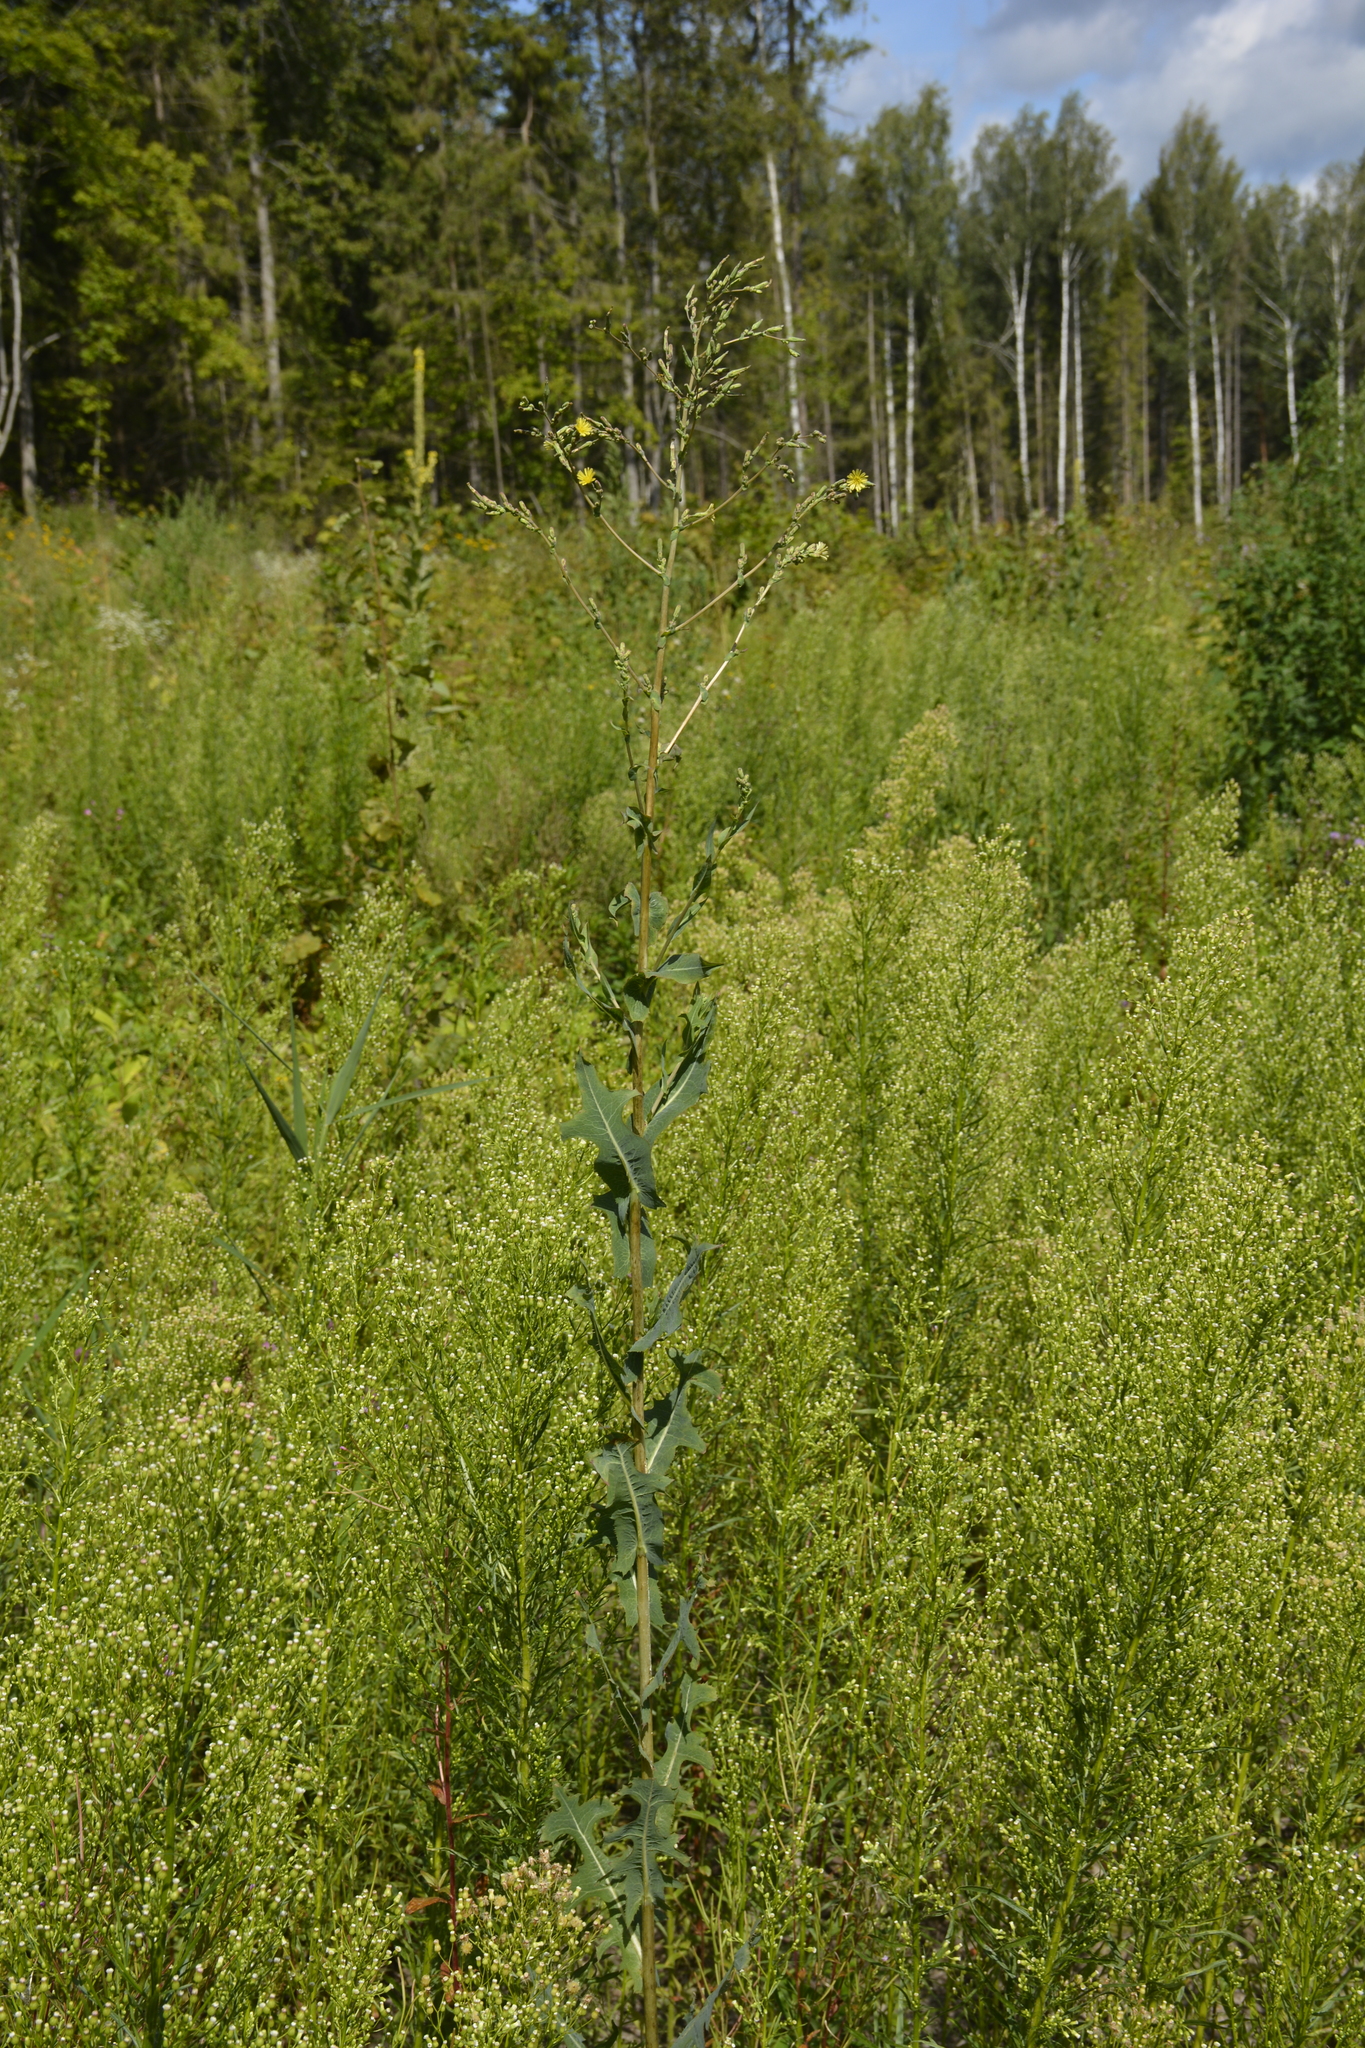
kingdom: Plantae
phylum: Tracheophyta
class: Magnoliopsida
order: Asterales
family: Asteraceae
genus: Lactuca
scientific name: Lactuca serriola
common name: Prickly lettuce
